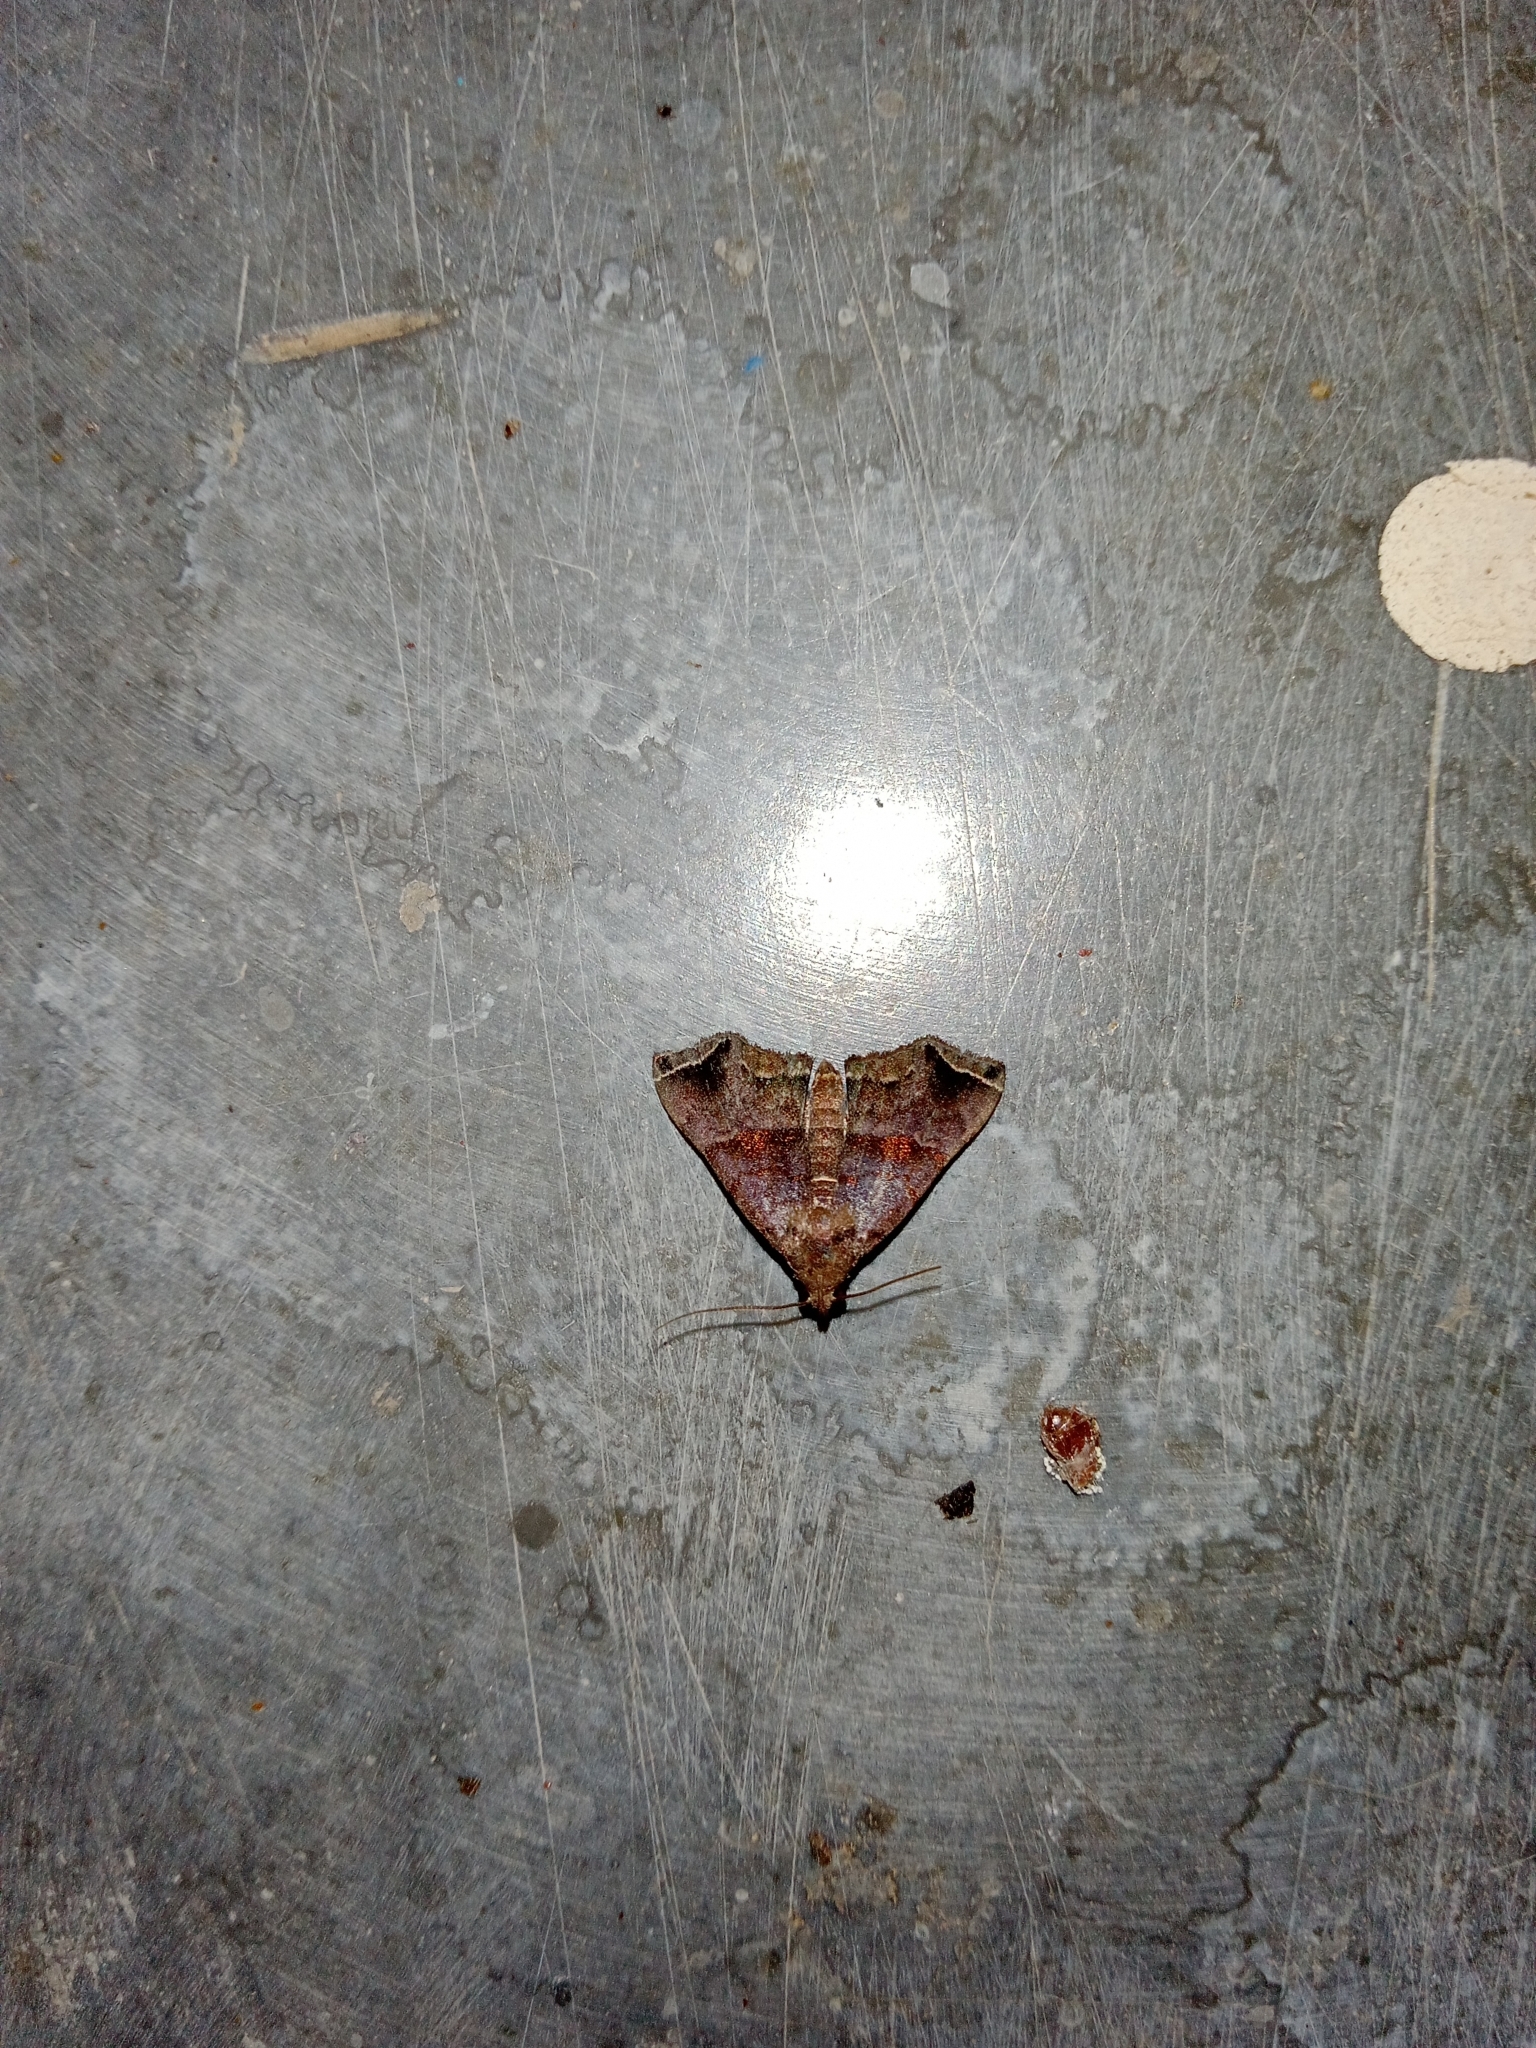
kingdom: Animalia
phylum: Arthropoda
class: Insecta
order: Lepidoptera
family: Erebidae
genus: Polypogon
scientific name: Polypogon biasalis
